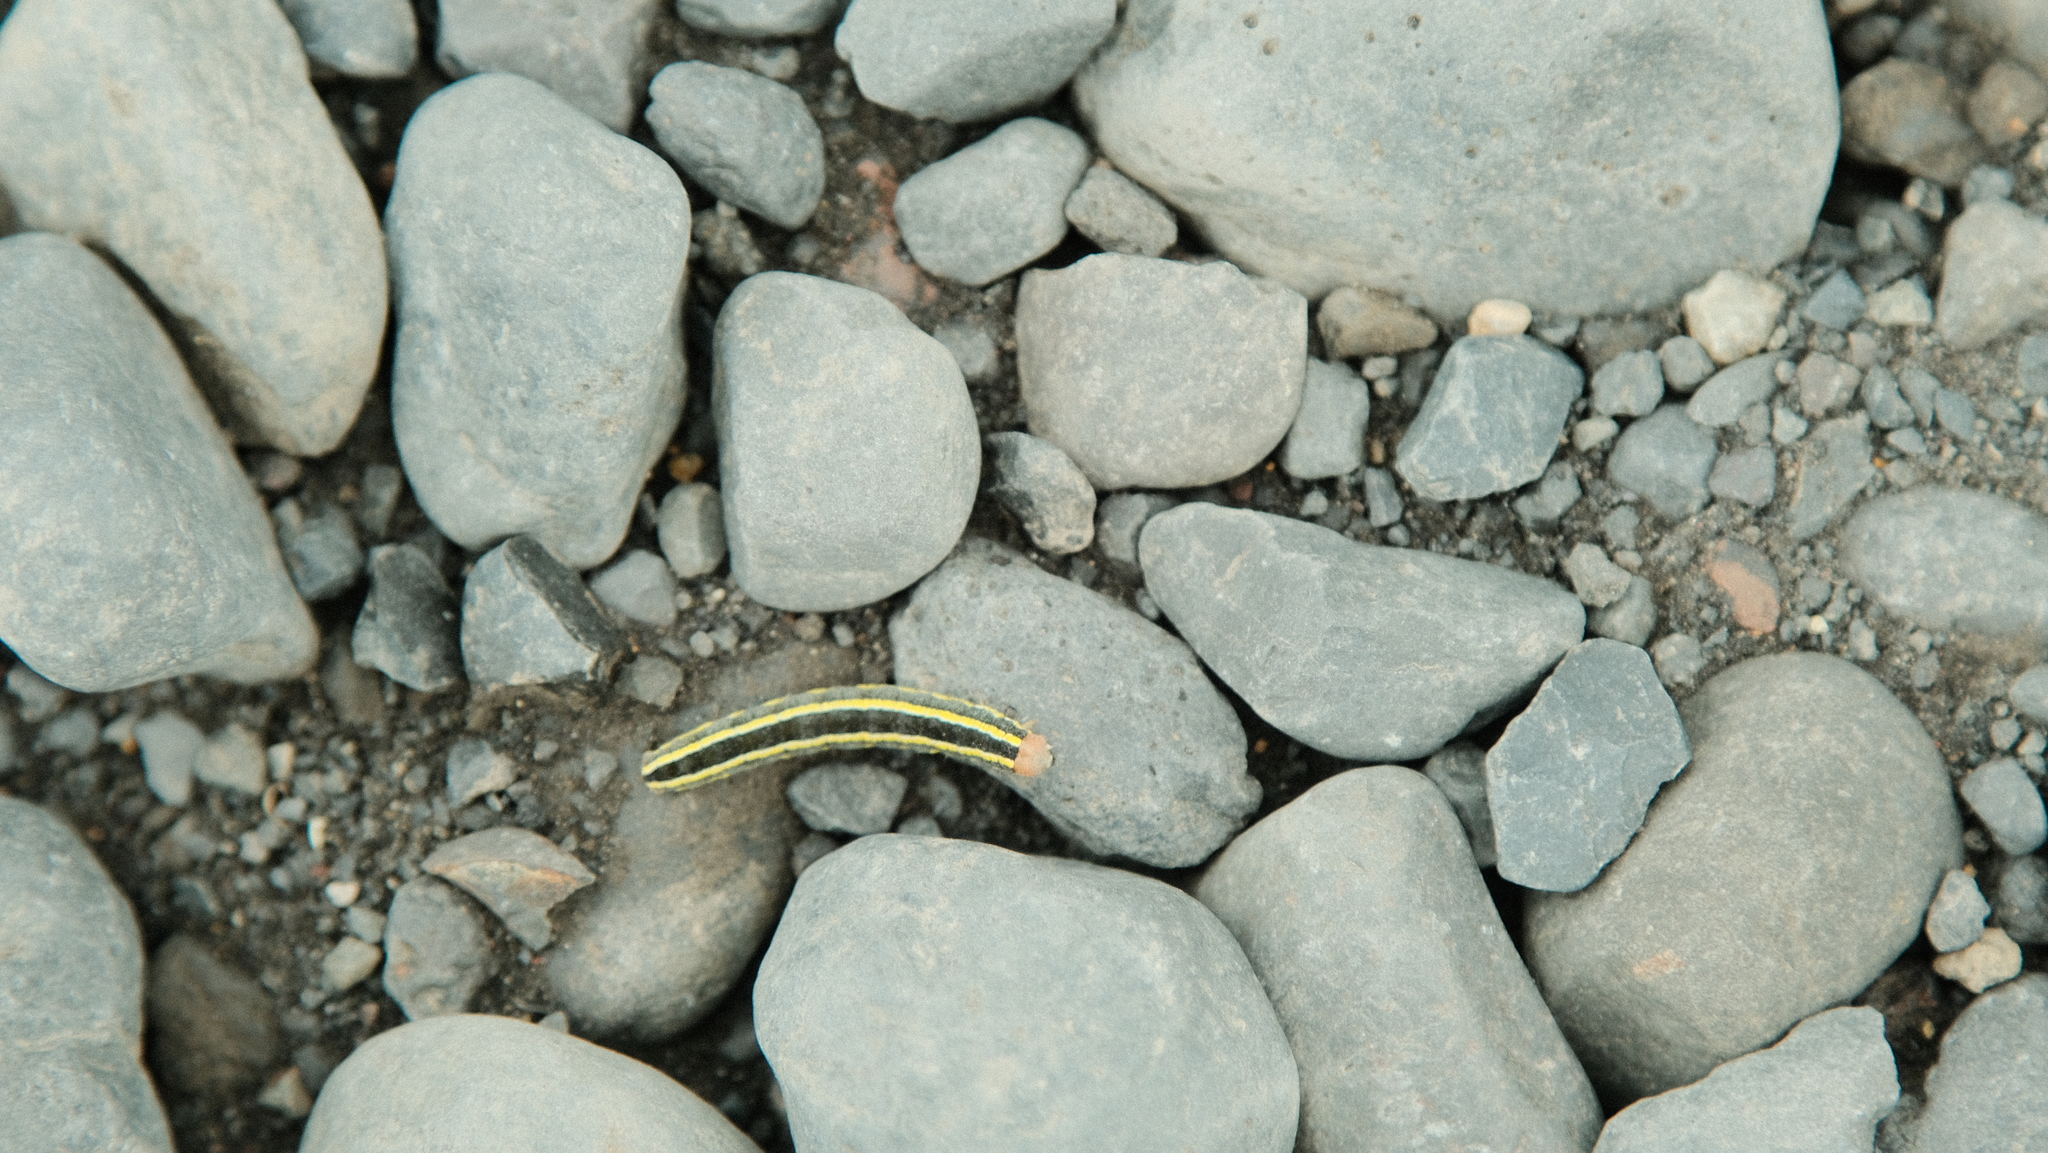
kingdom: Animalia
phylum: Arthropoda
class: Insecta
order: Lepidoptera
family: Noctuidae
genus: Ceramica
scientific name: Ceramica pisi
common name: Broom moth
